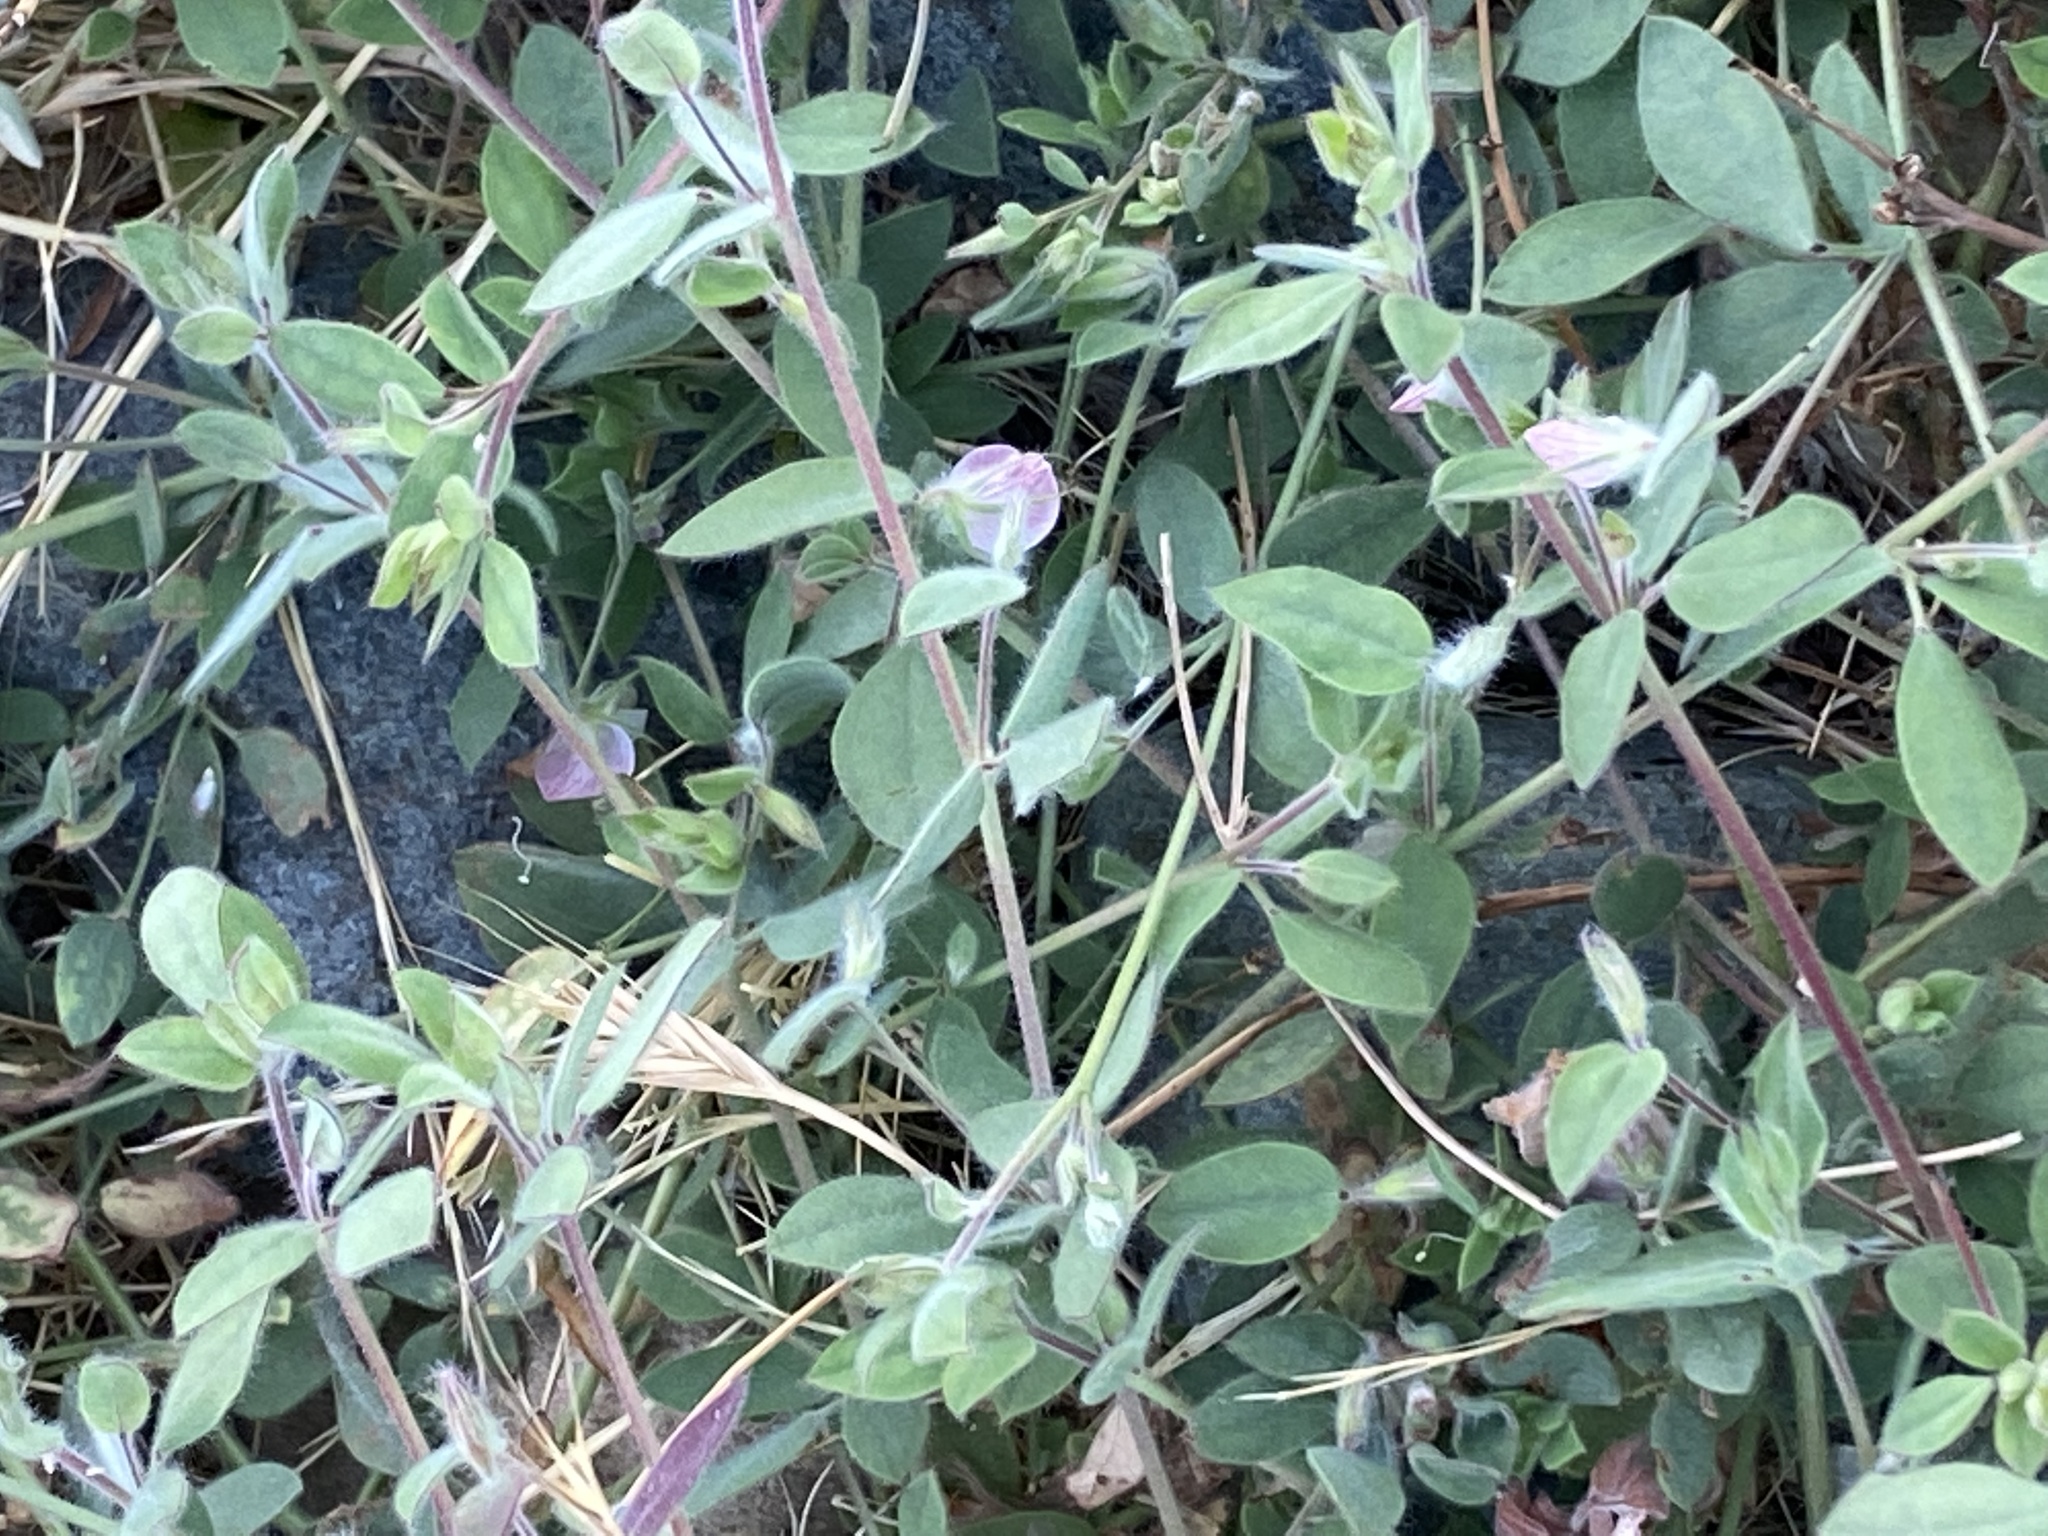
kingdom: Plantae
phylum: Tracheophyta
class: Magnoliopsida
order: Fabales
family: Fabaceae
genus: Acmispon
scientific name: Acmispon americanus
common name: American bird's-foot trefoil
